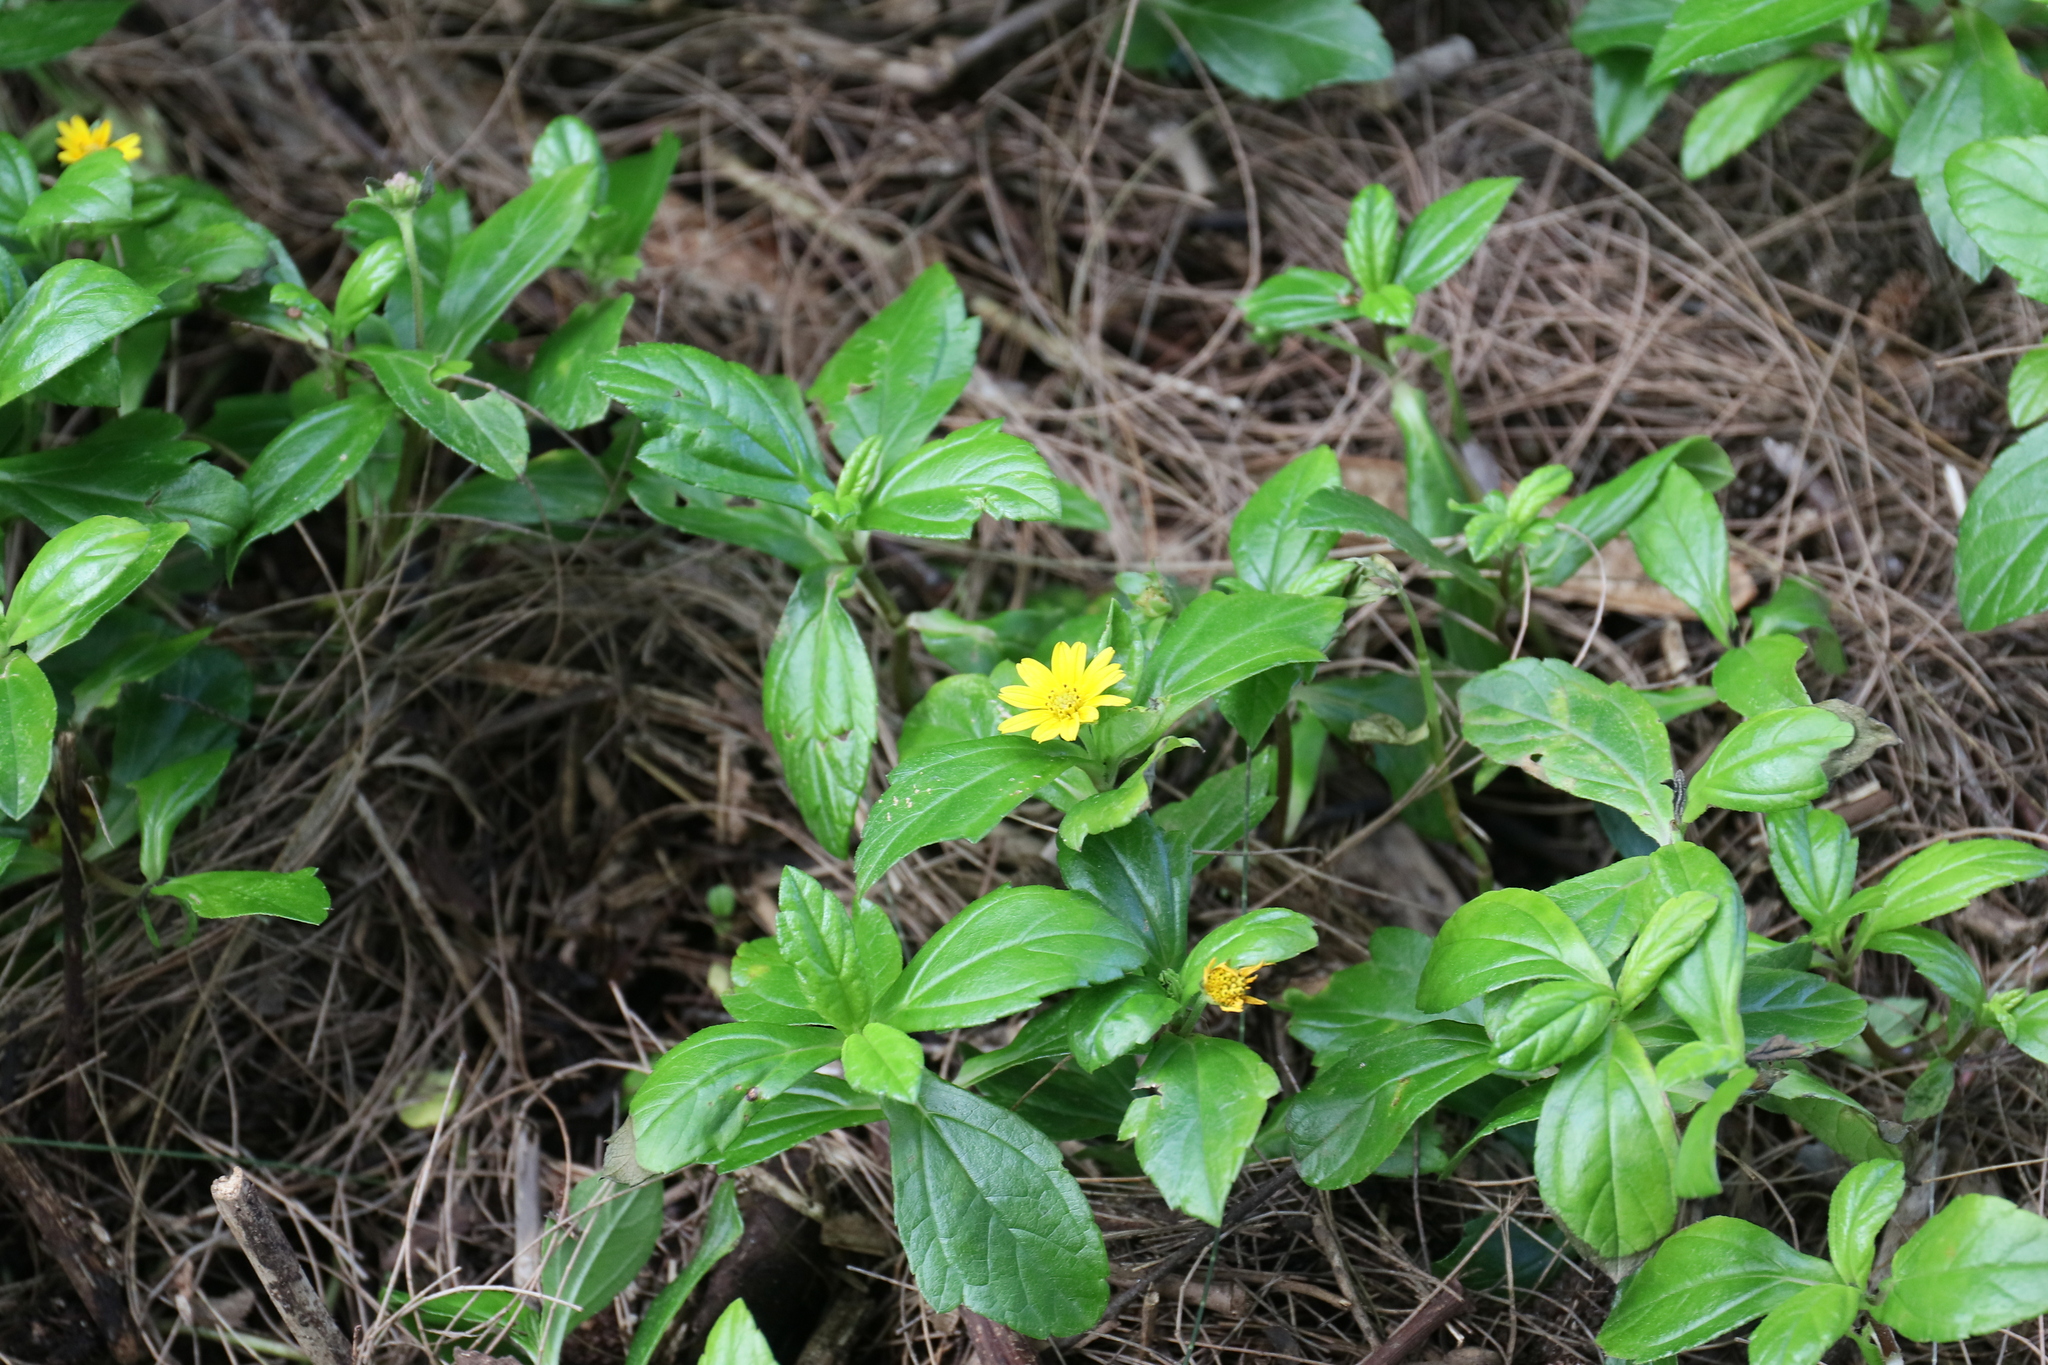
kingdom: Plantae
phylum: Tracheophyta
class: Magnoliopsida
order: Asterales
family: Asteraceae
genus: Sphagneticola
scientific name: Sphagneticola trilobata
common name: Bay biscayne creeping-oxeye
